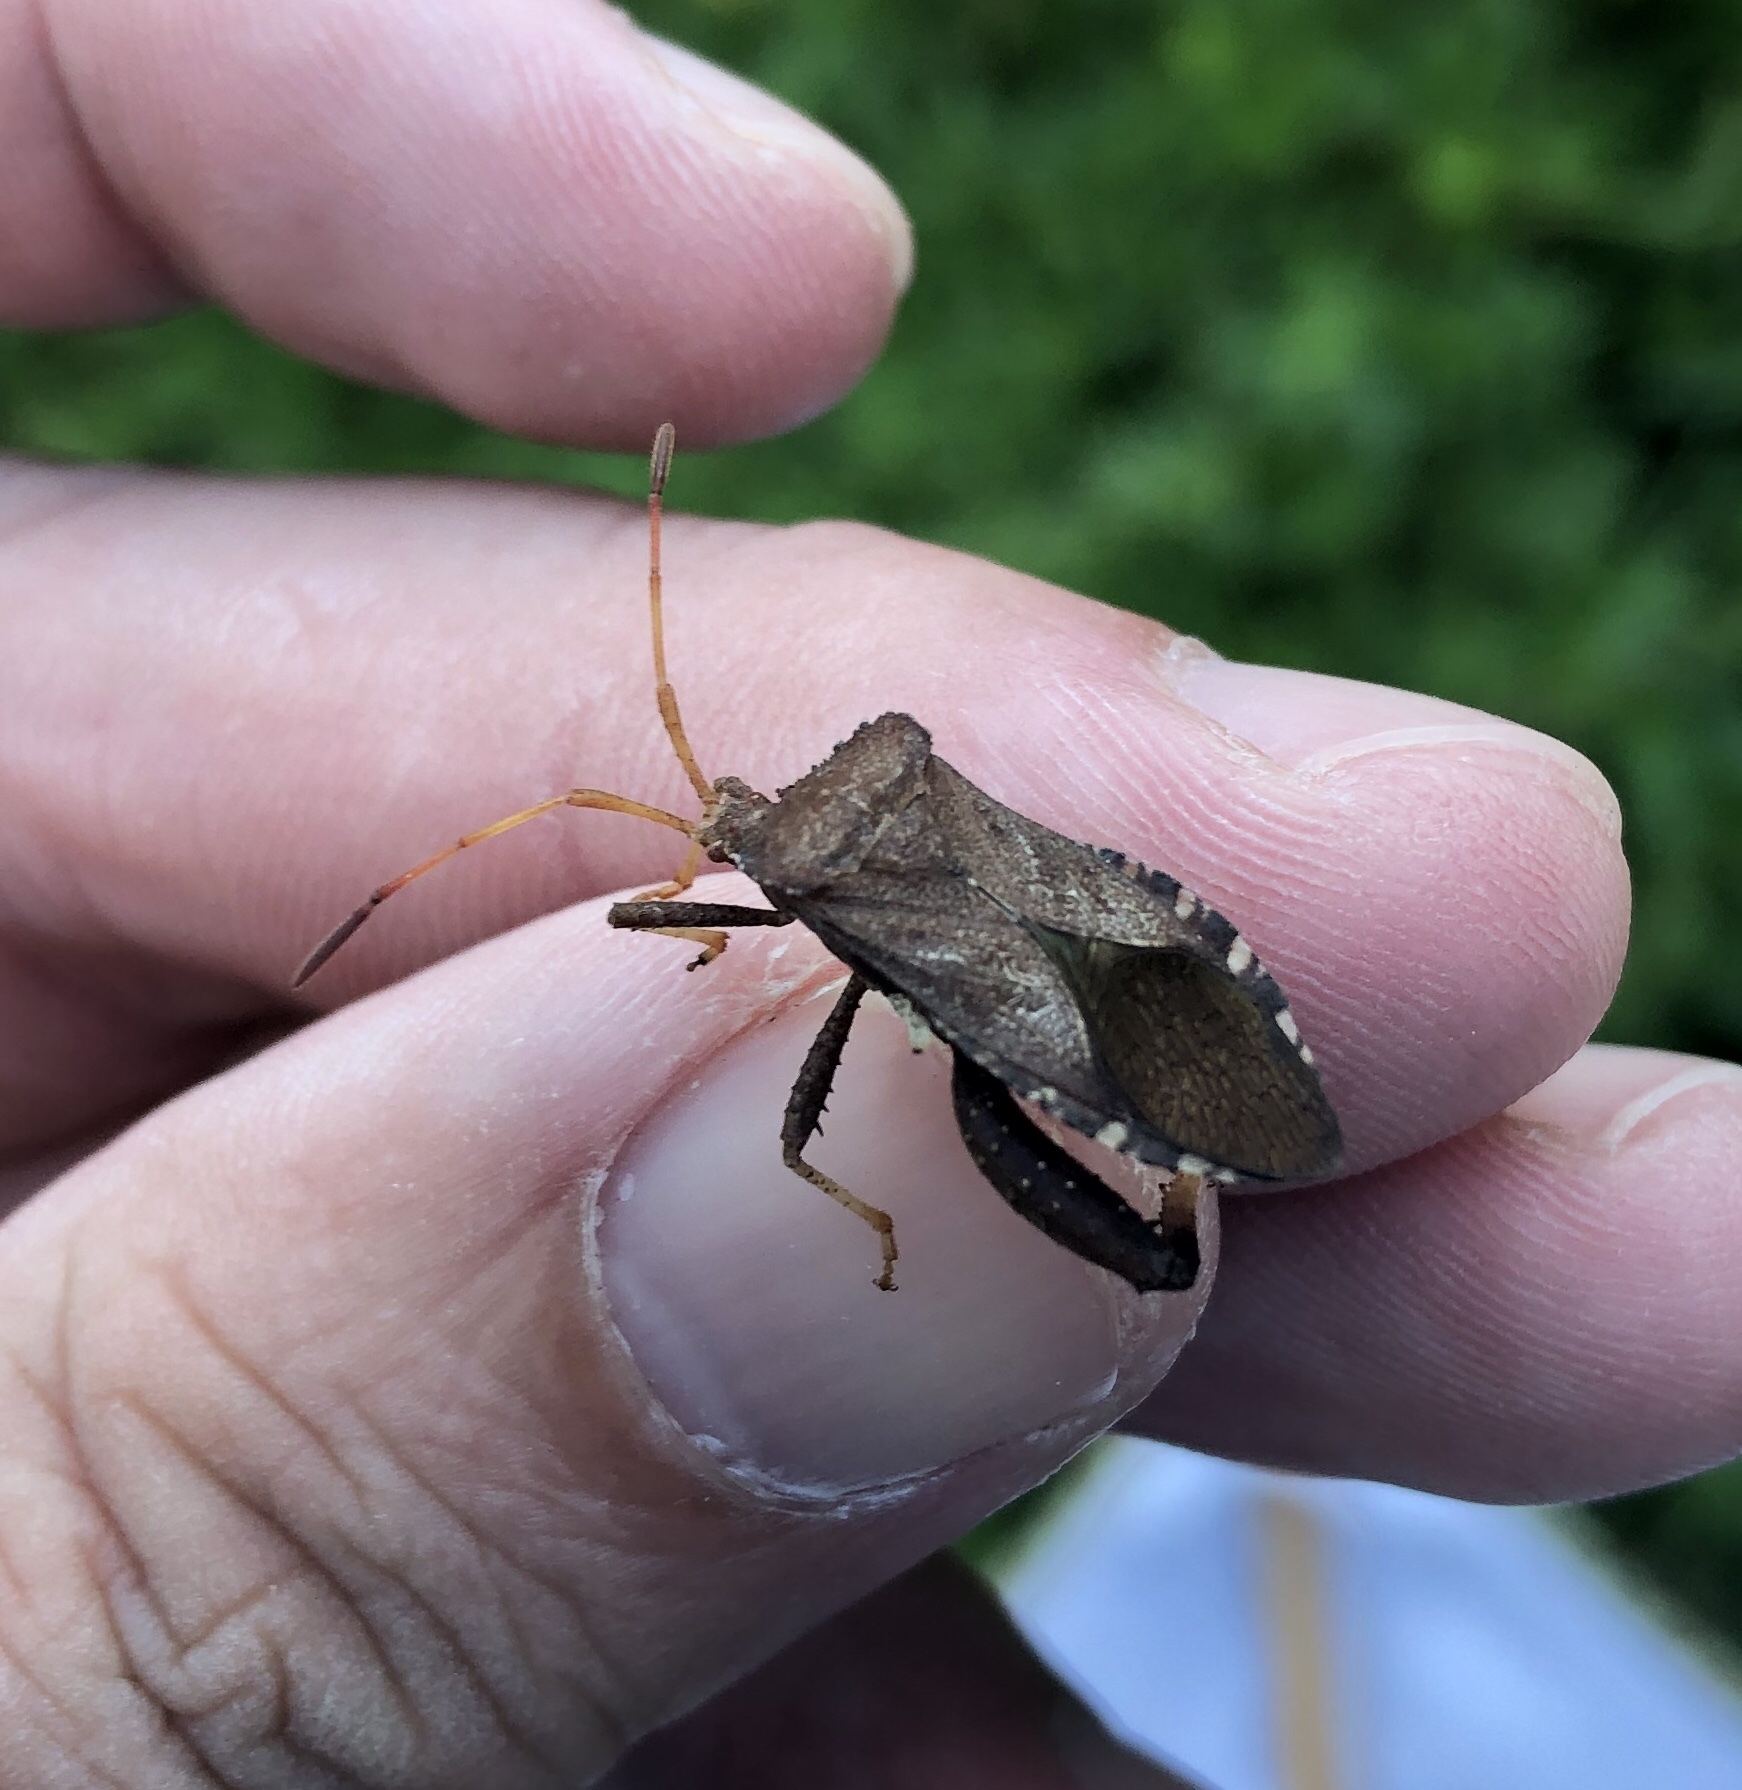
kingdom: Animalia
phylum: Arthropoda
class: Insecta
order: Hemiptera
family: Coreidae
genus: Euthochtha
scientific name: Euthochtha galeator
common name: Helmeted squash bug
